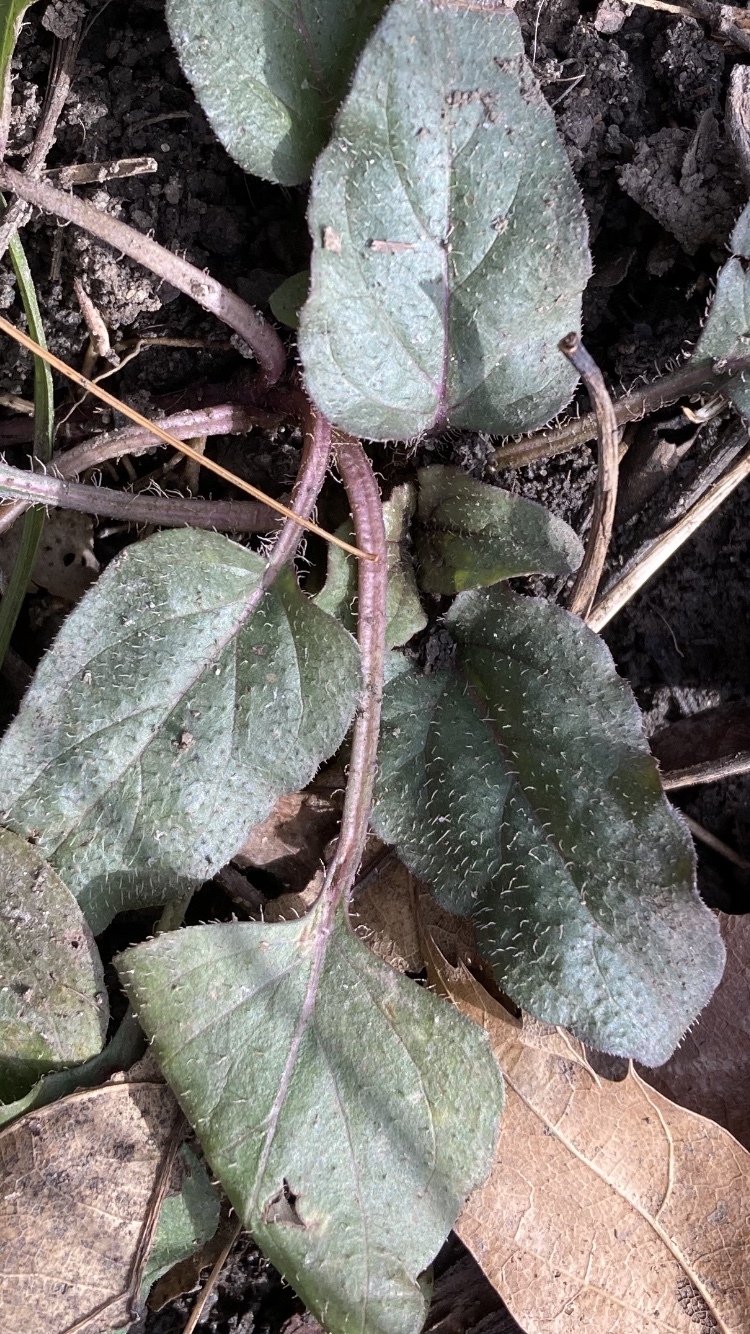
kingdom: Plantae
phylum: Tracheophyta
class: Magnoliopsida
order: Lamiales
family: Lamiaceae
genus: Prunella
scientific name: Prunella vulgaris
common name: Heal-all
